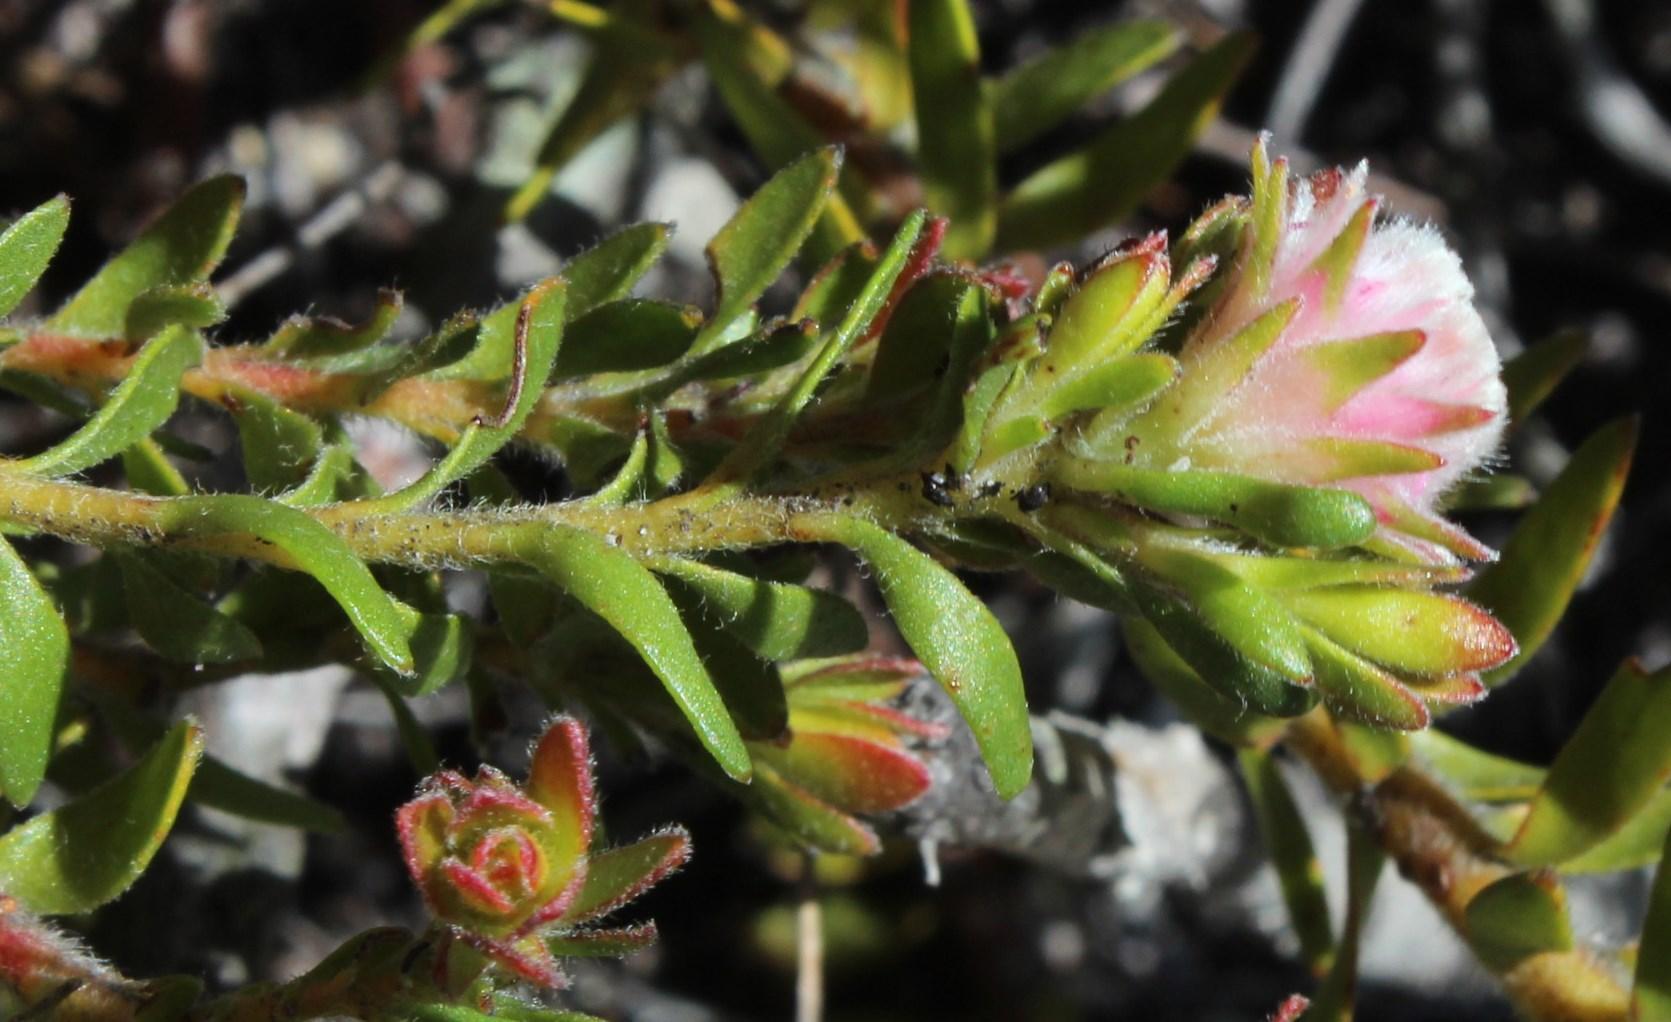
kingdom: Plantae
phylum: Tracheophyta
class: Magnoliopsida
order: Proteales
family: Proteaceae
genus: Diastella
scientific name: Diastella divaricata
